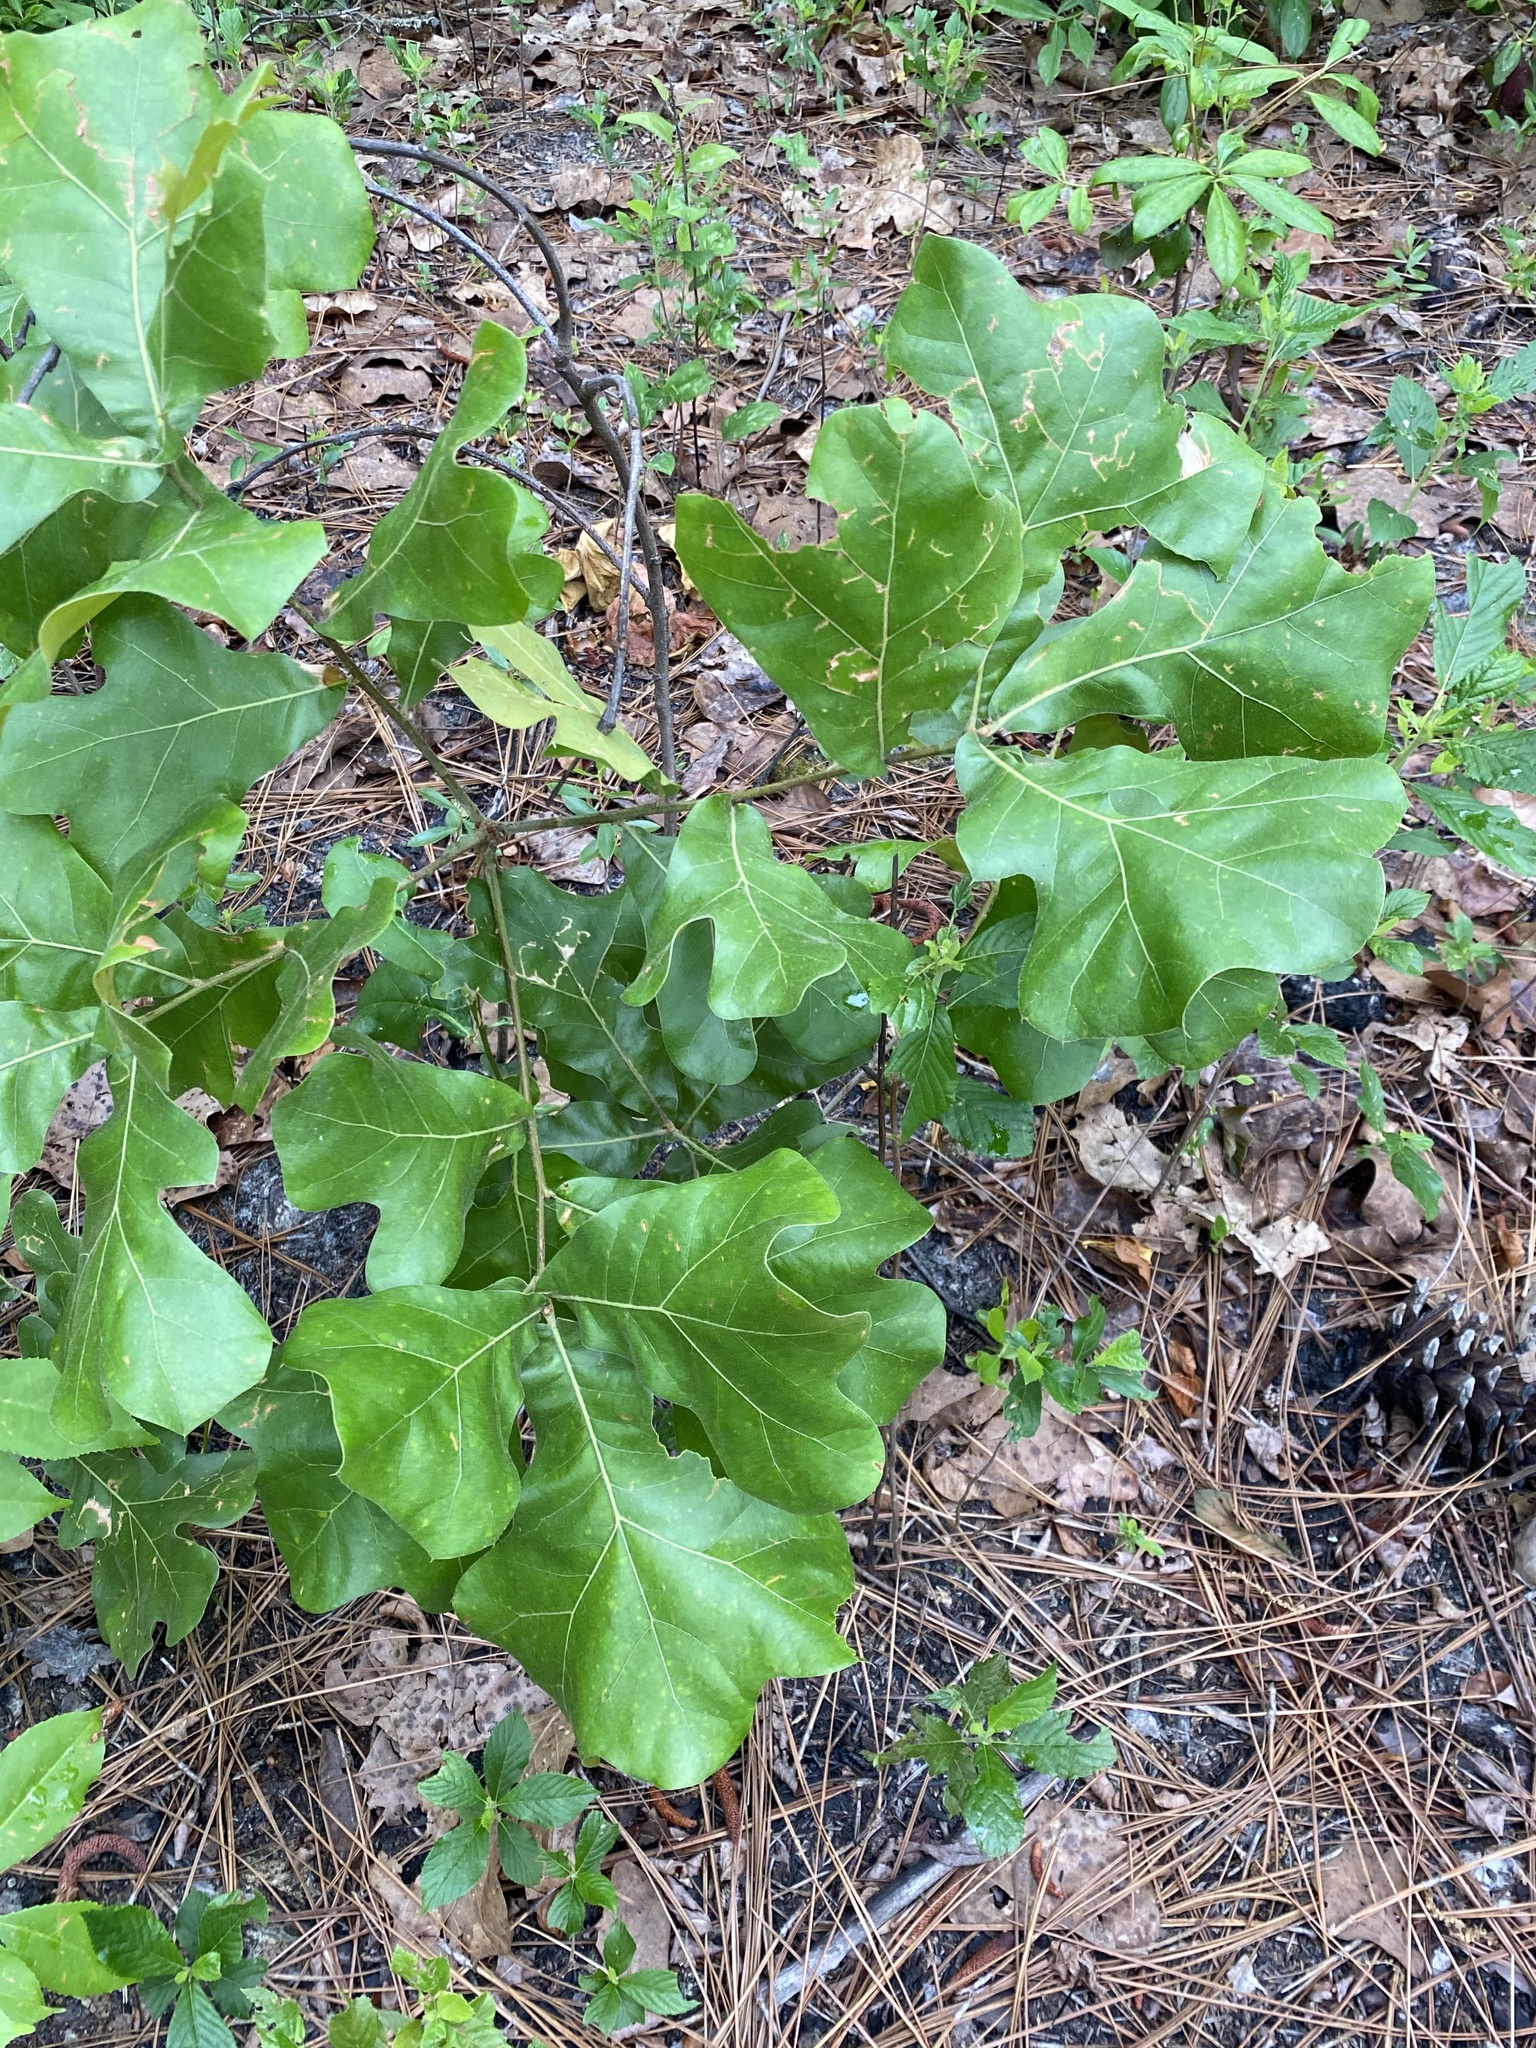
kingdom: Plantae
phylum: Tracheophyta
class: Magnoliopsida
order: Fagales
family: Fagaceae
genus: Quercus
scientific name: Quercus marilandica
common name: Blackjack oak
